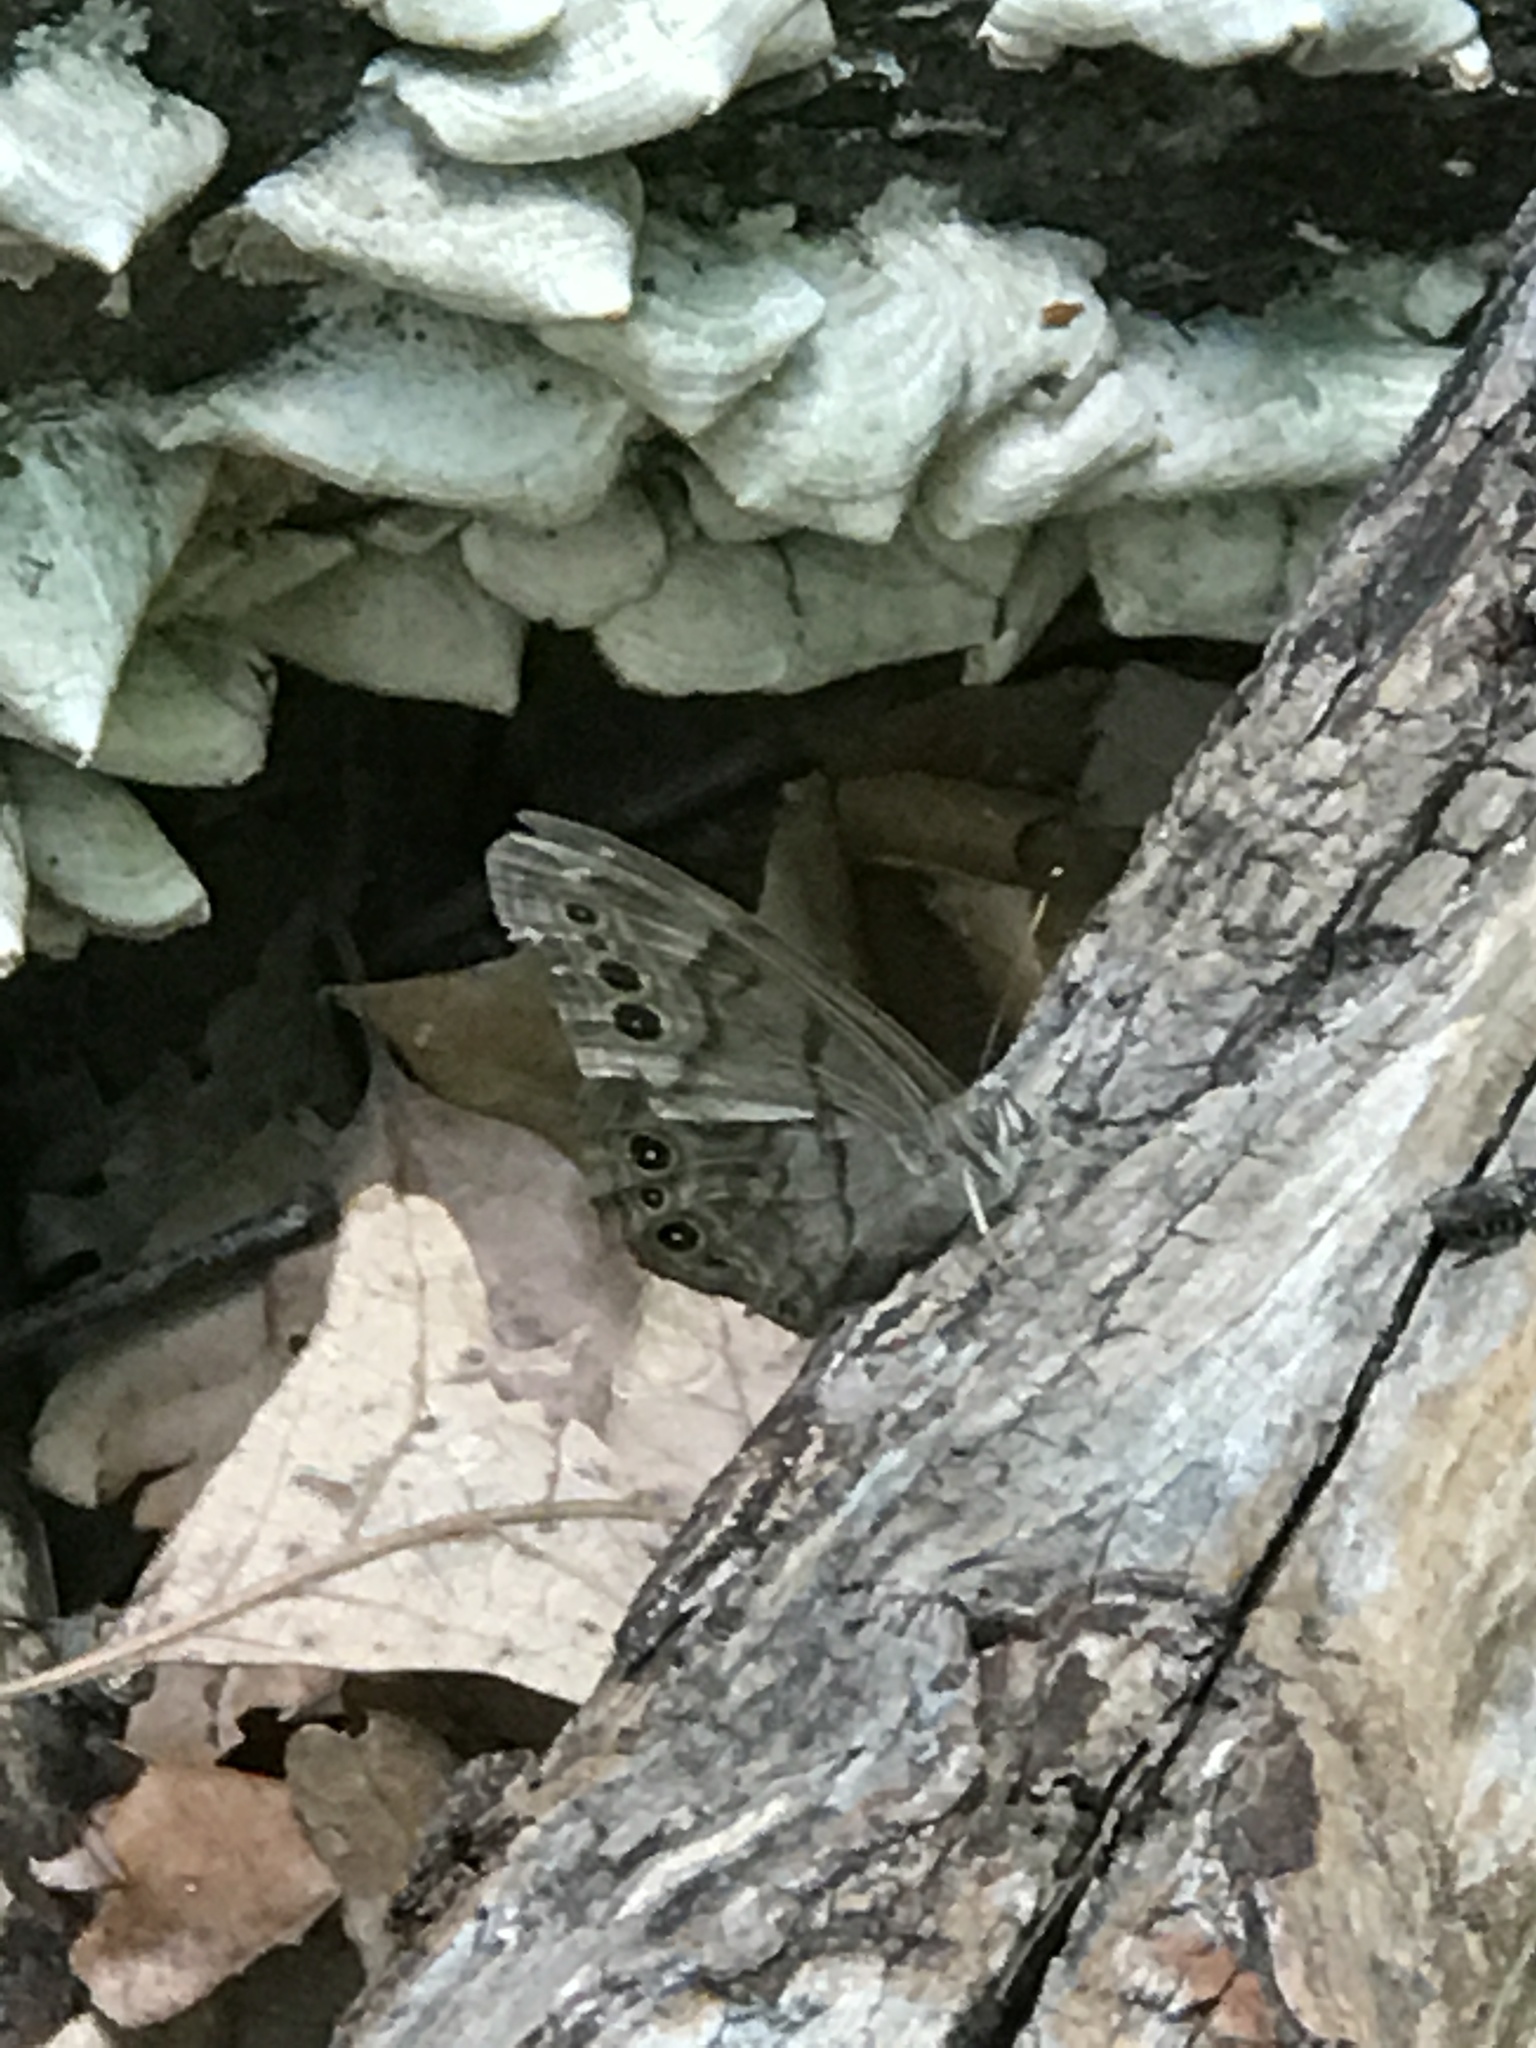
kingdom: Animalia
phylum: Arthropoda
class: Insecta
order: Lepidoptera
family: Nymphalidae
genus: Lethe
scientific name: Lethe anthedon
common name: Northern pearly-eye
